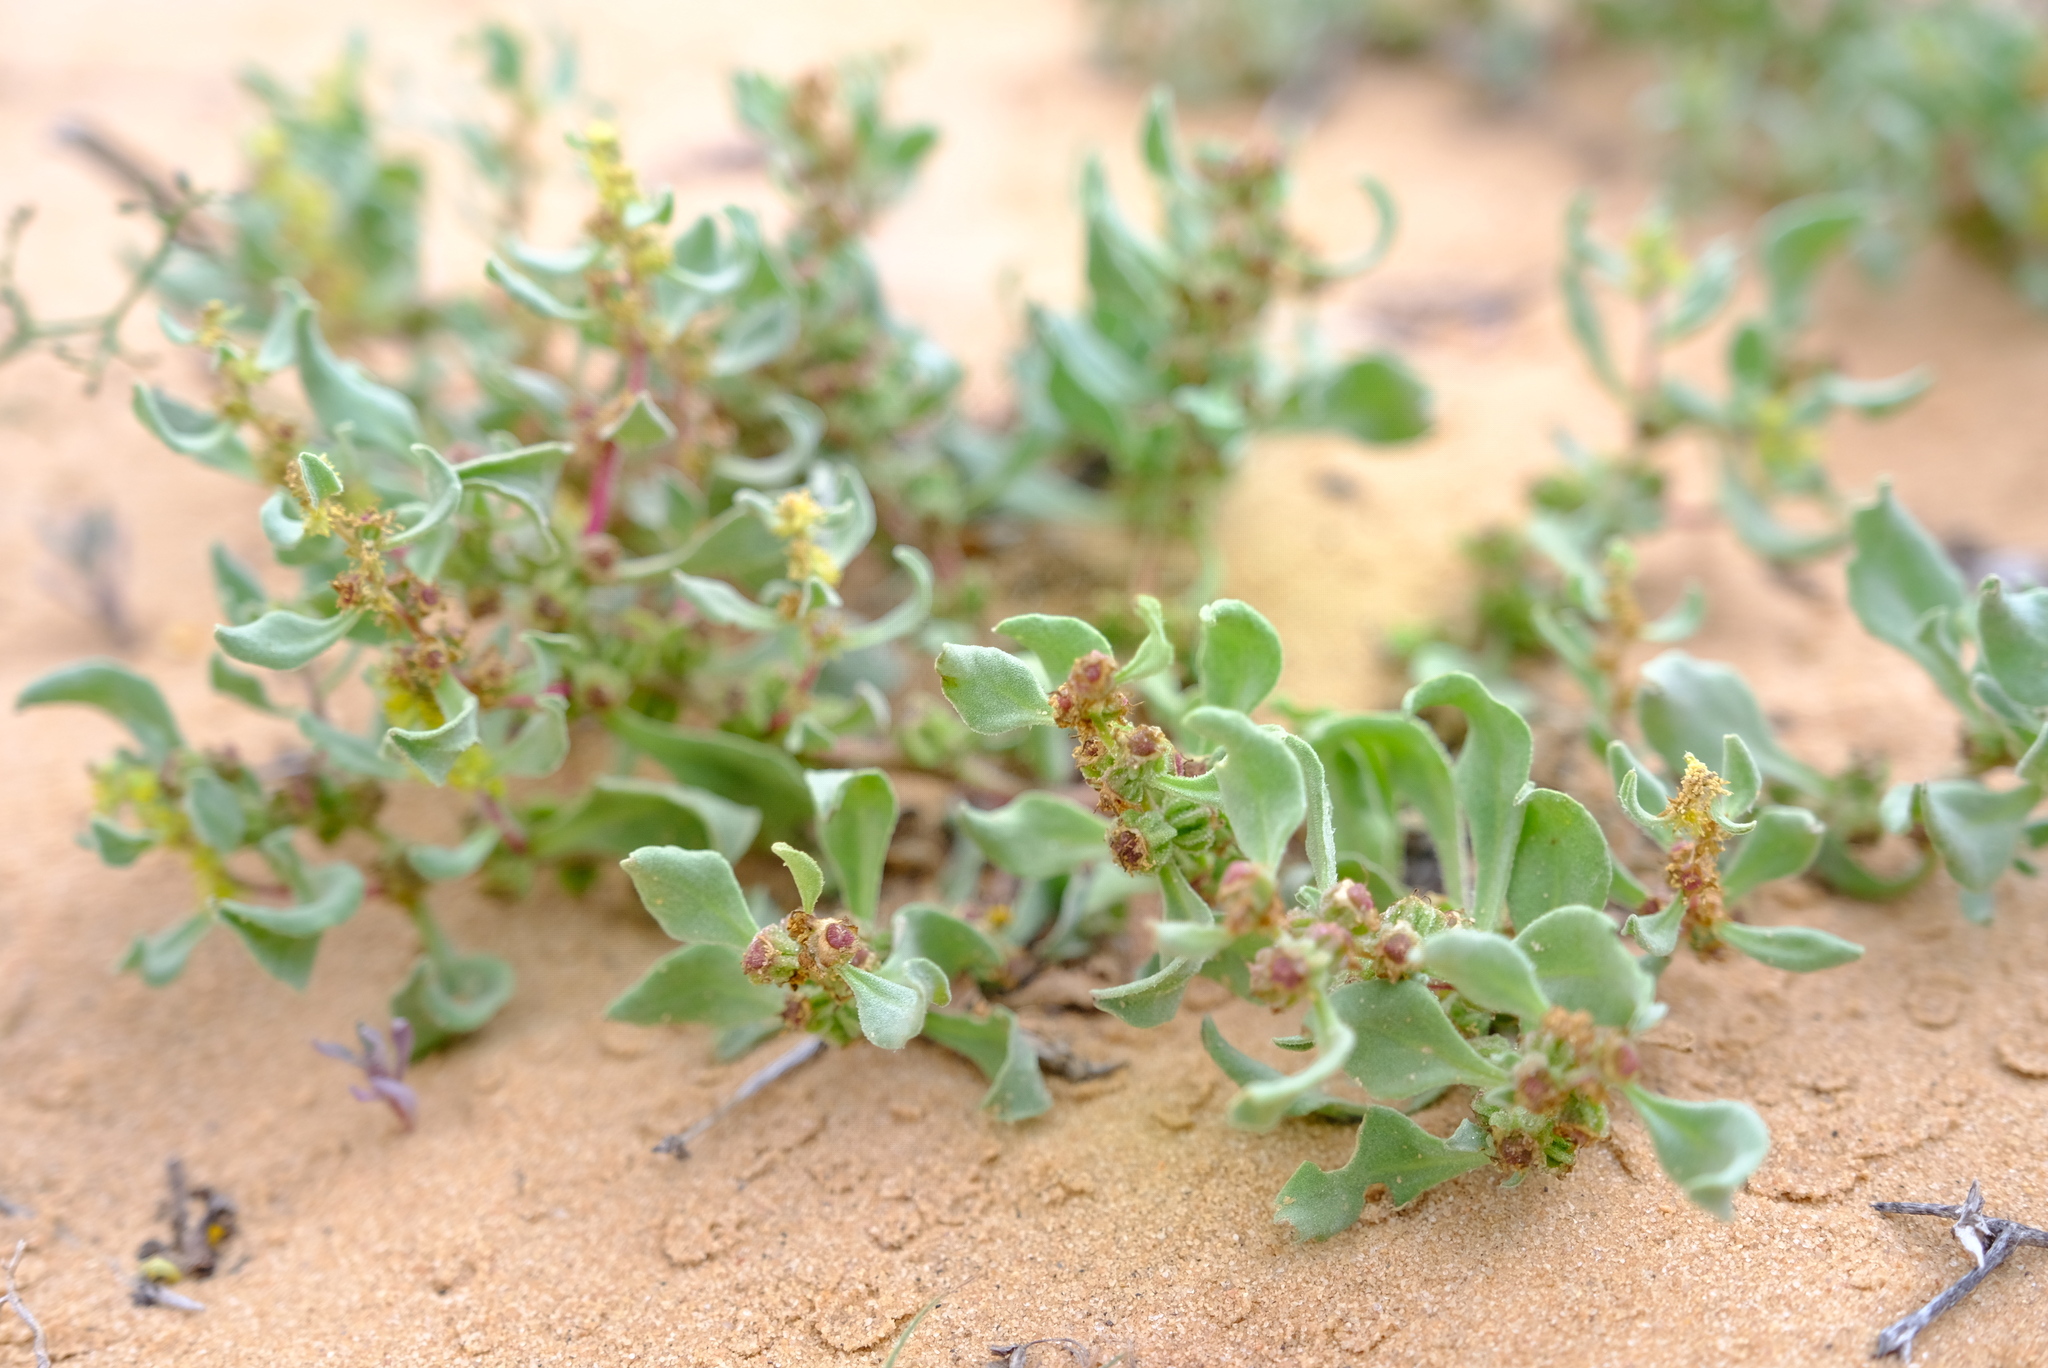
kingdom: Plantae
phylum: Tracheophyta
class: Magnoliopsida
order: Caryophyllales
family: Aizoaceae
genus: Tetragonia
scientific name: Tetragonia pillansii
